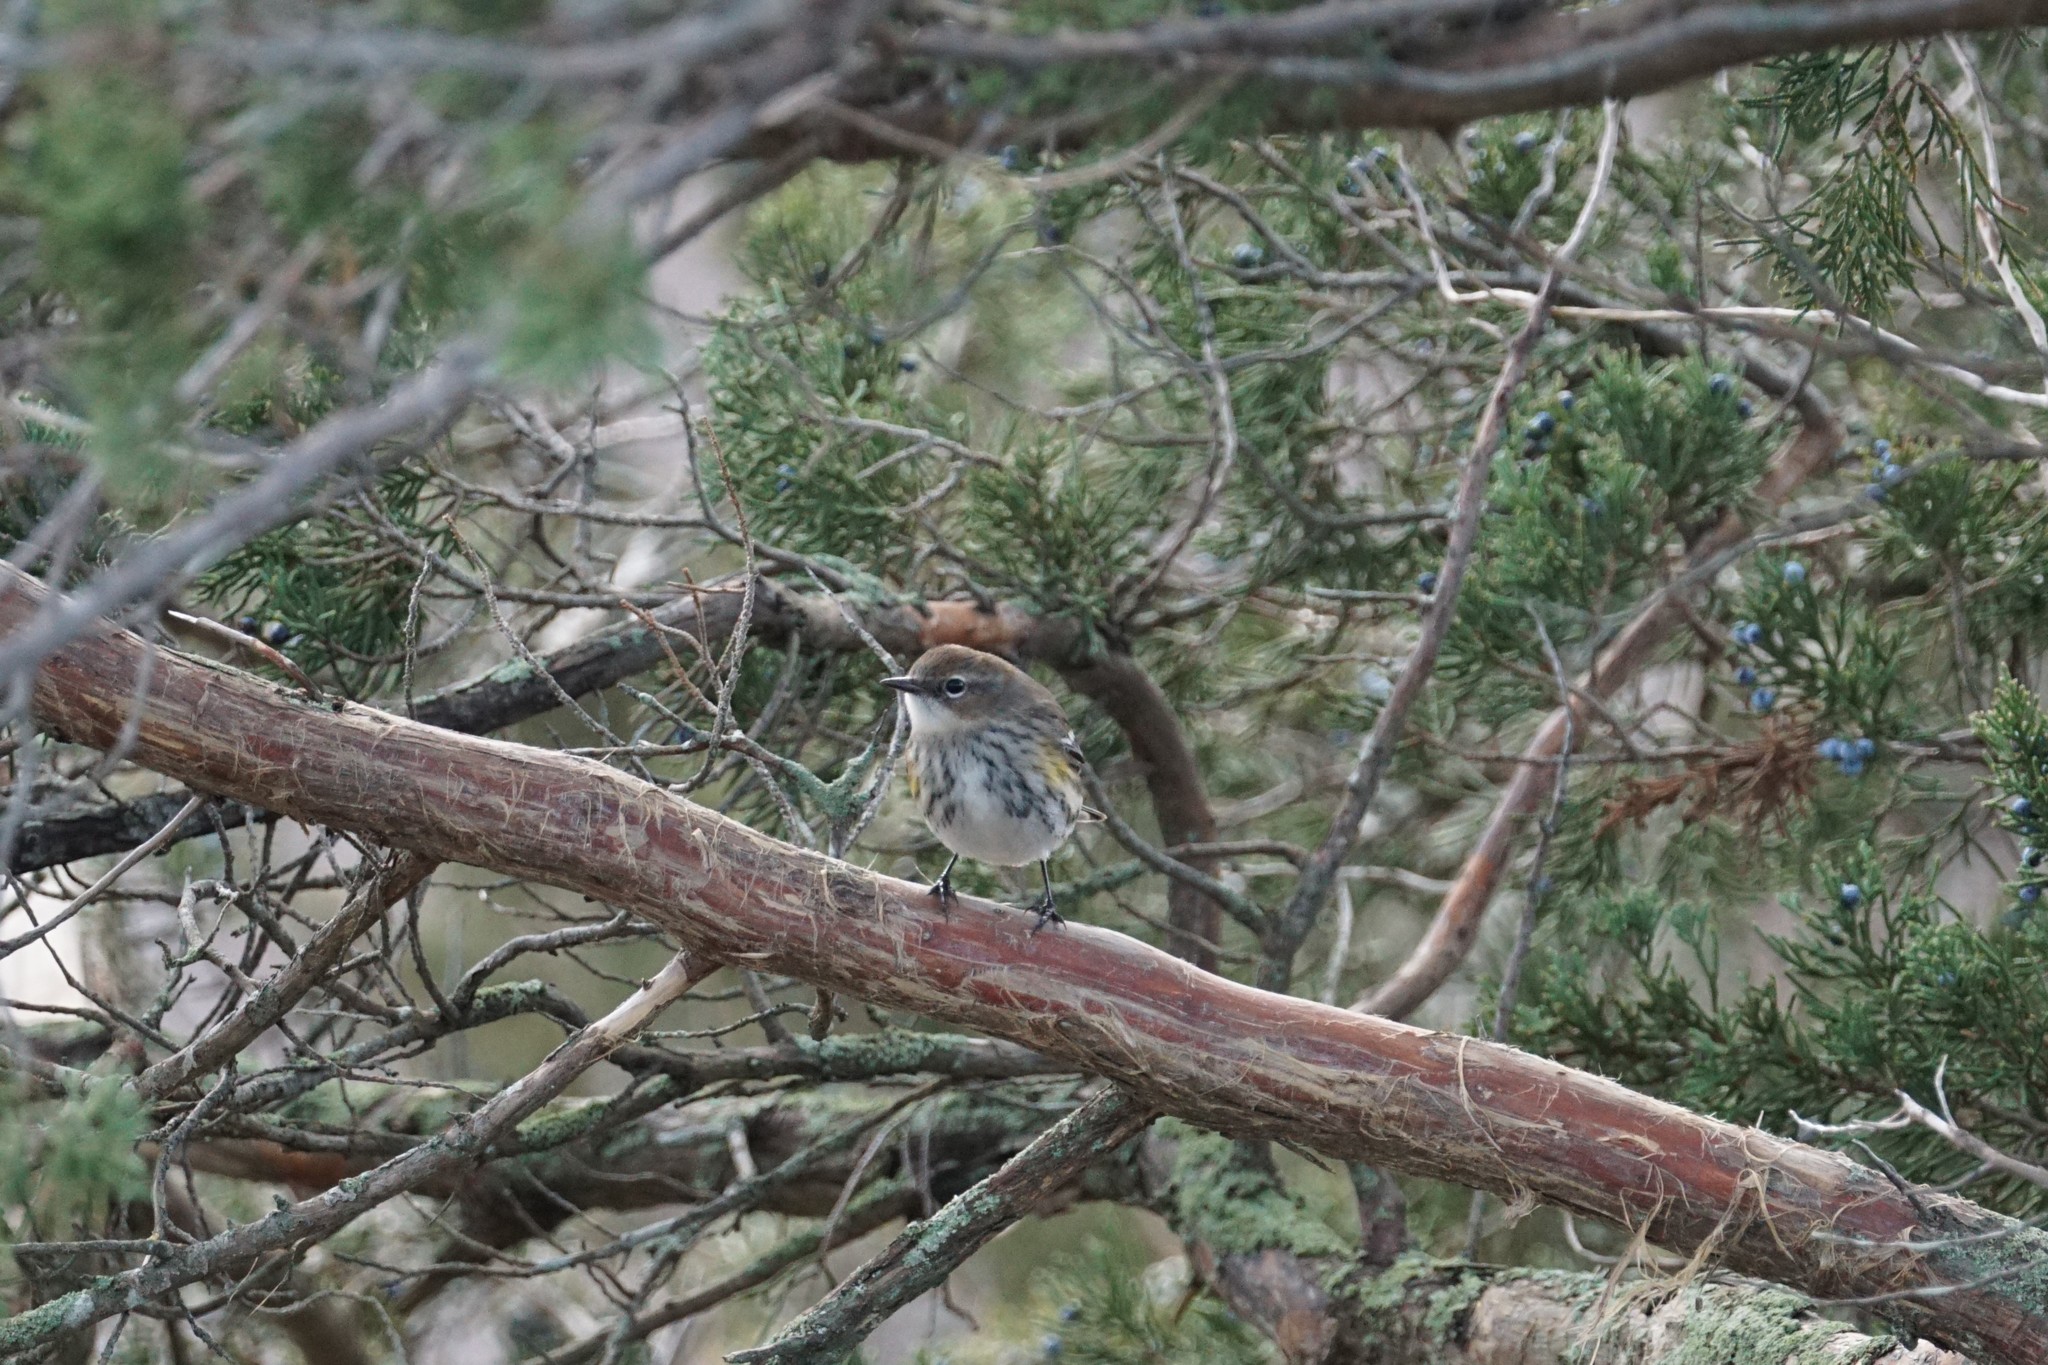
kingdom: Animalia
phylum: Chordata
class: Aves
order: Passeriformes
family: Parulidae
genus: Setophaga
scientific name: Setophaga coronata
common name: Myrtle warbler
